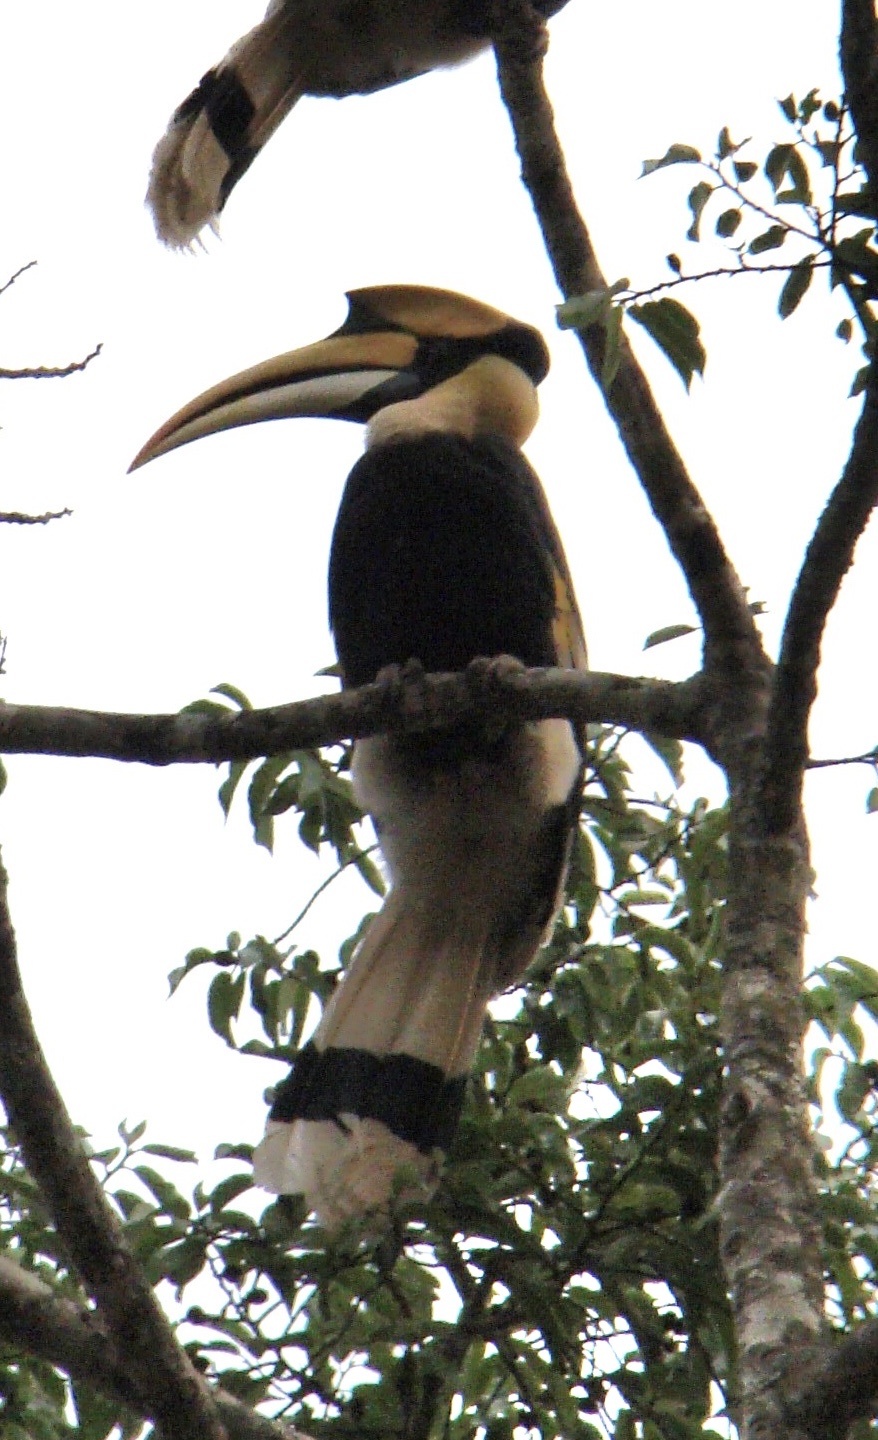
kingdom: Animalia
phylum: Chordata
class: Aves
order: Bucerotiformes
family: Bucerotidae
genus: Buceros
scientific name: Buceros bicornis
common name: Great hornbill
